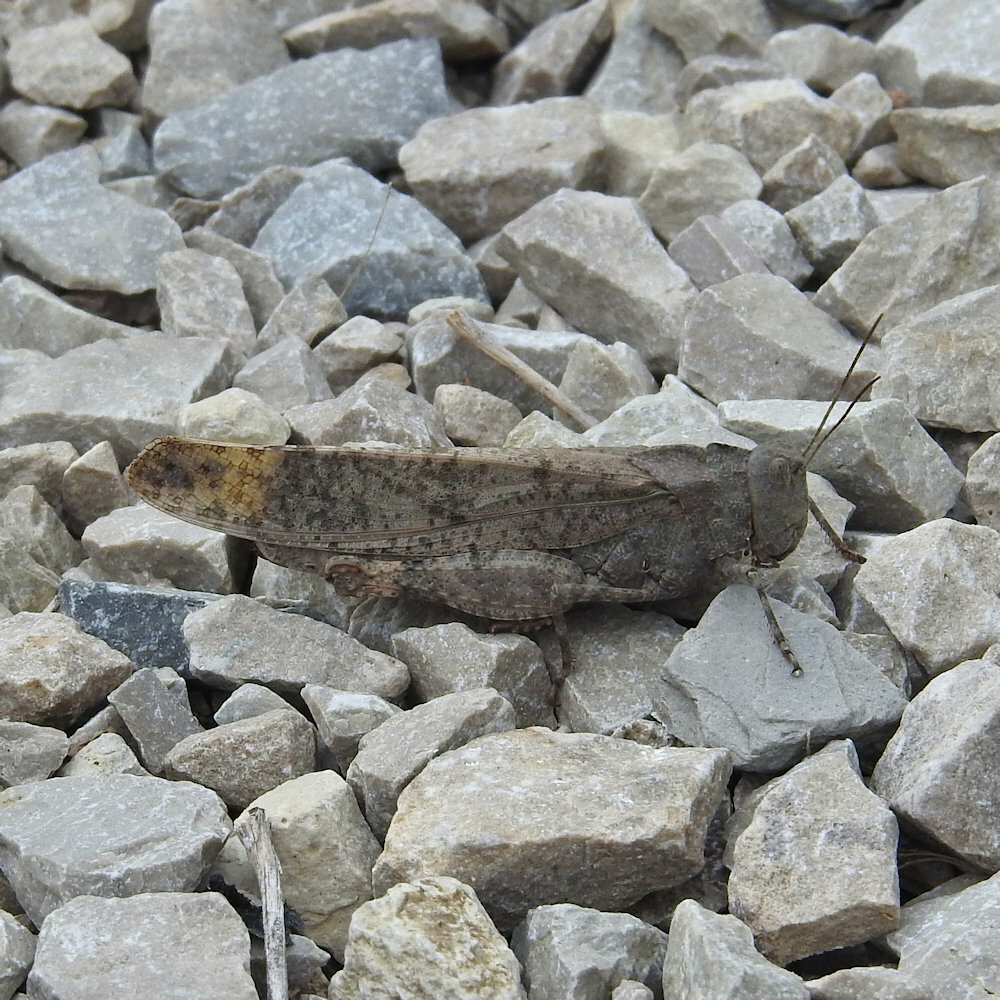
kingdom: Animalia
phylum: Arthropoda
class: Insecta
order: Orthoptera
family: Acrididae
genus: Dissosteira
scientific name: Dissosteira carolina
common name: Carolina grasshopper
